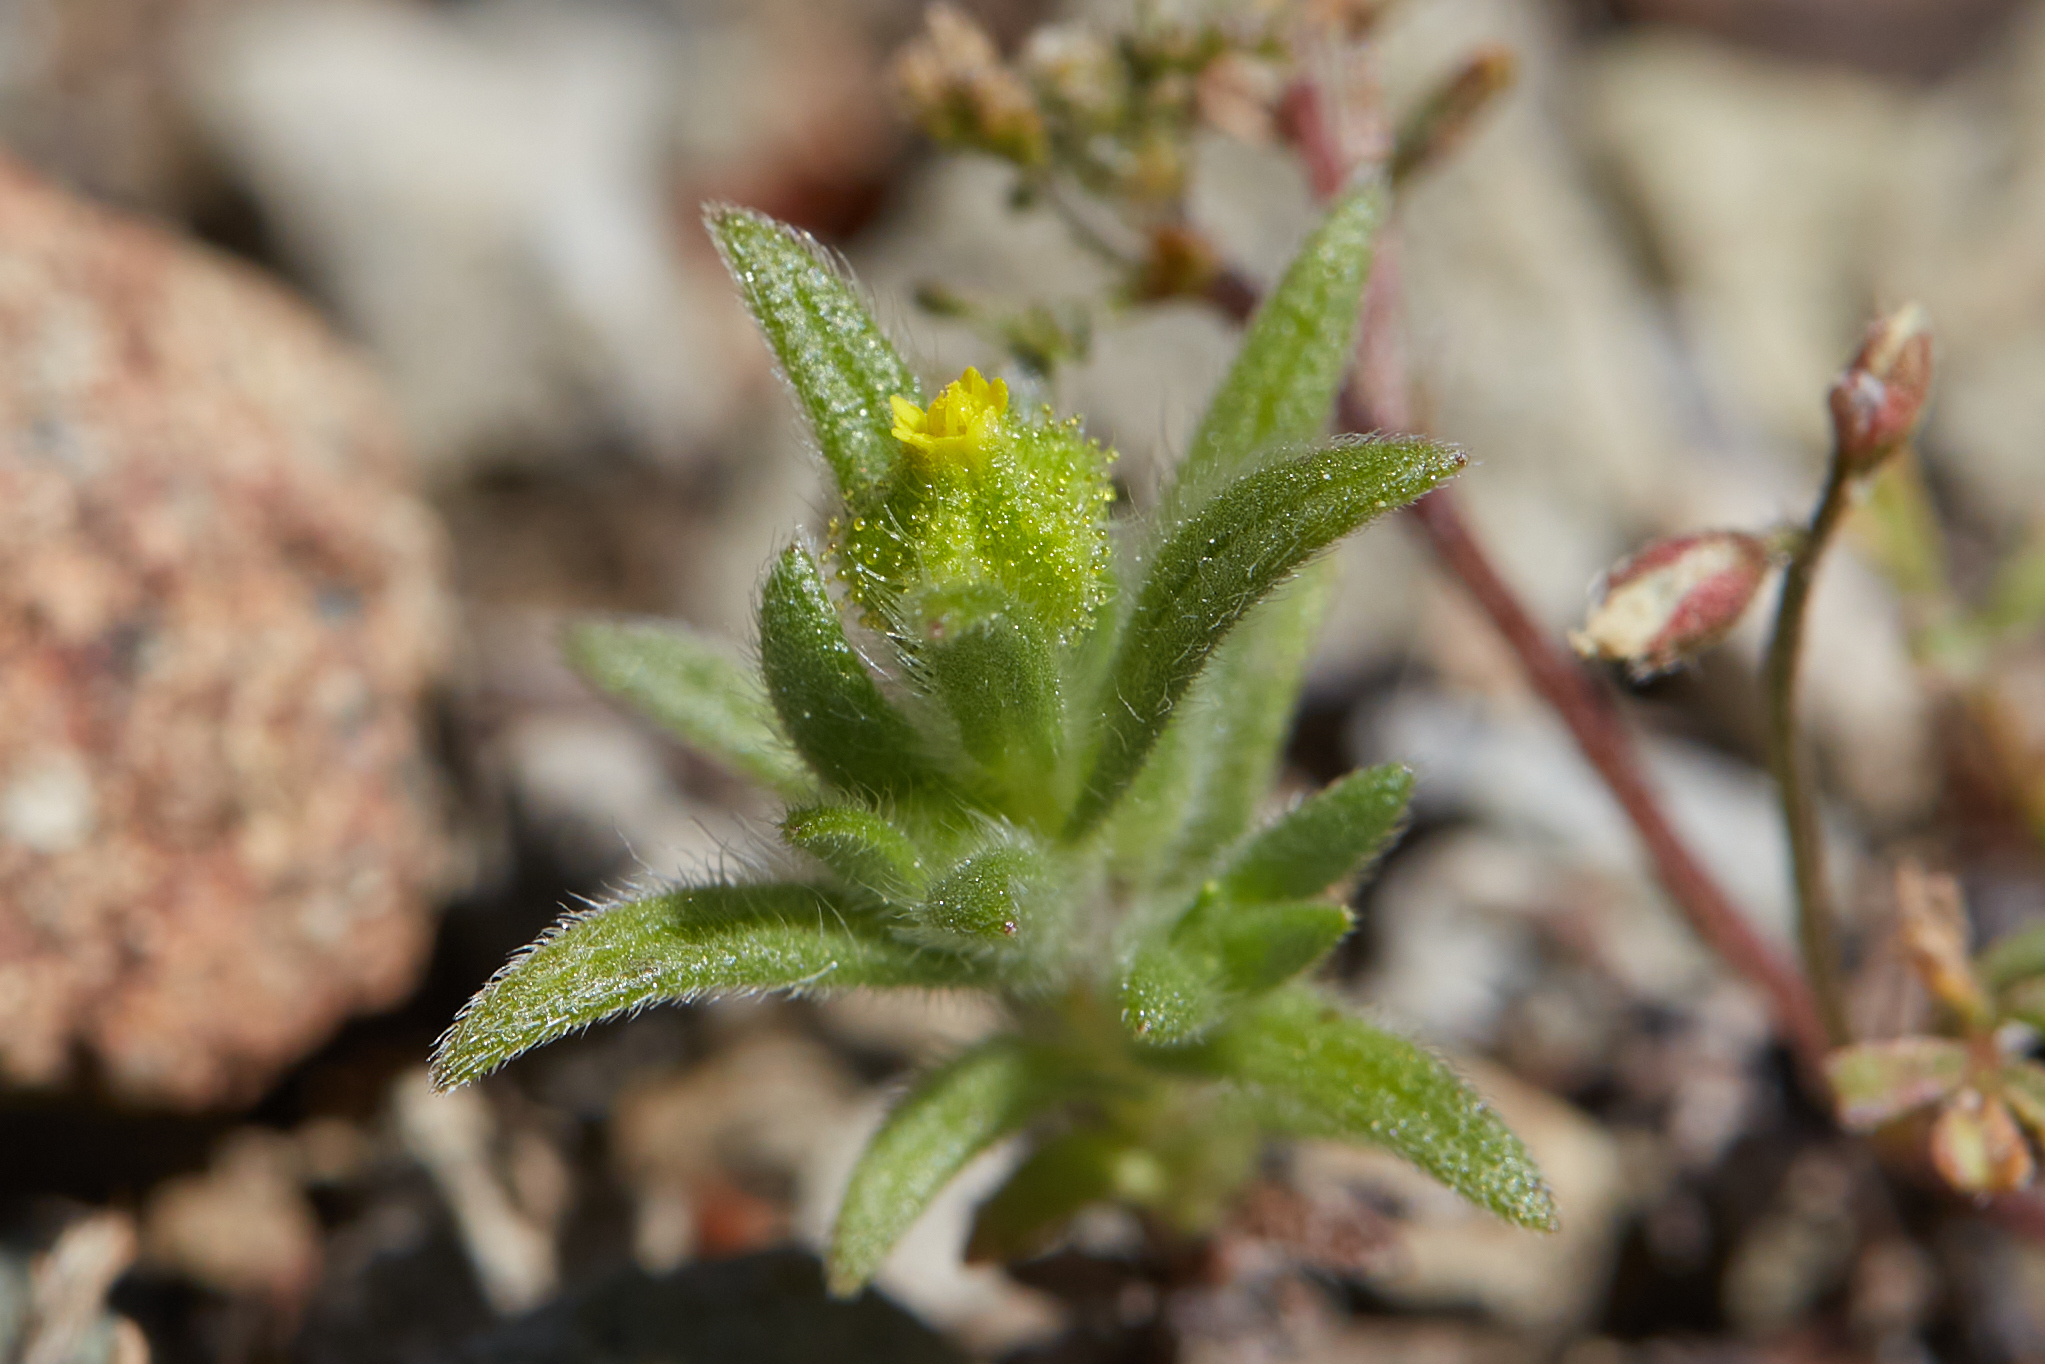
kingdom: Plantae
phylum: Tracheophyta
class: Magnoliopsida
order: Asterales
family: Asteraceae
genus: Madia
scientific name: Madia exigua
